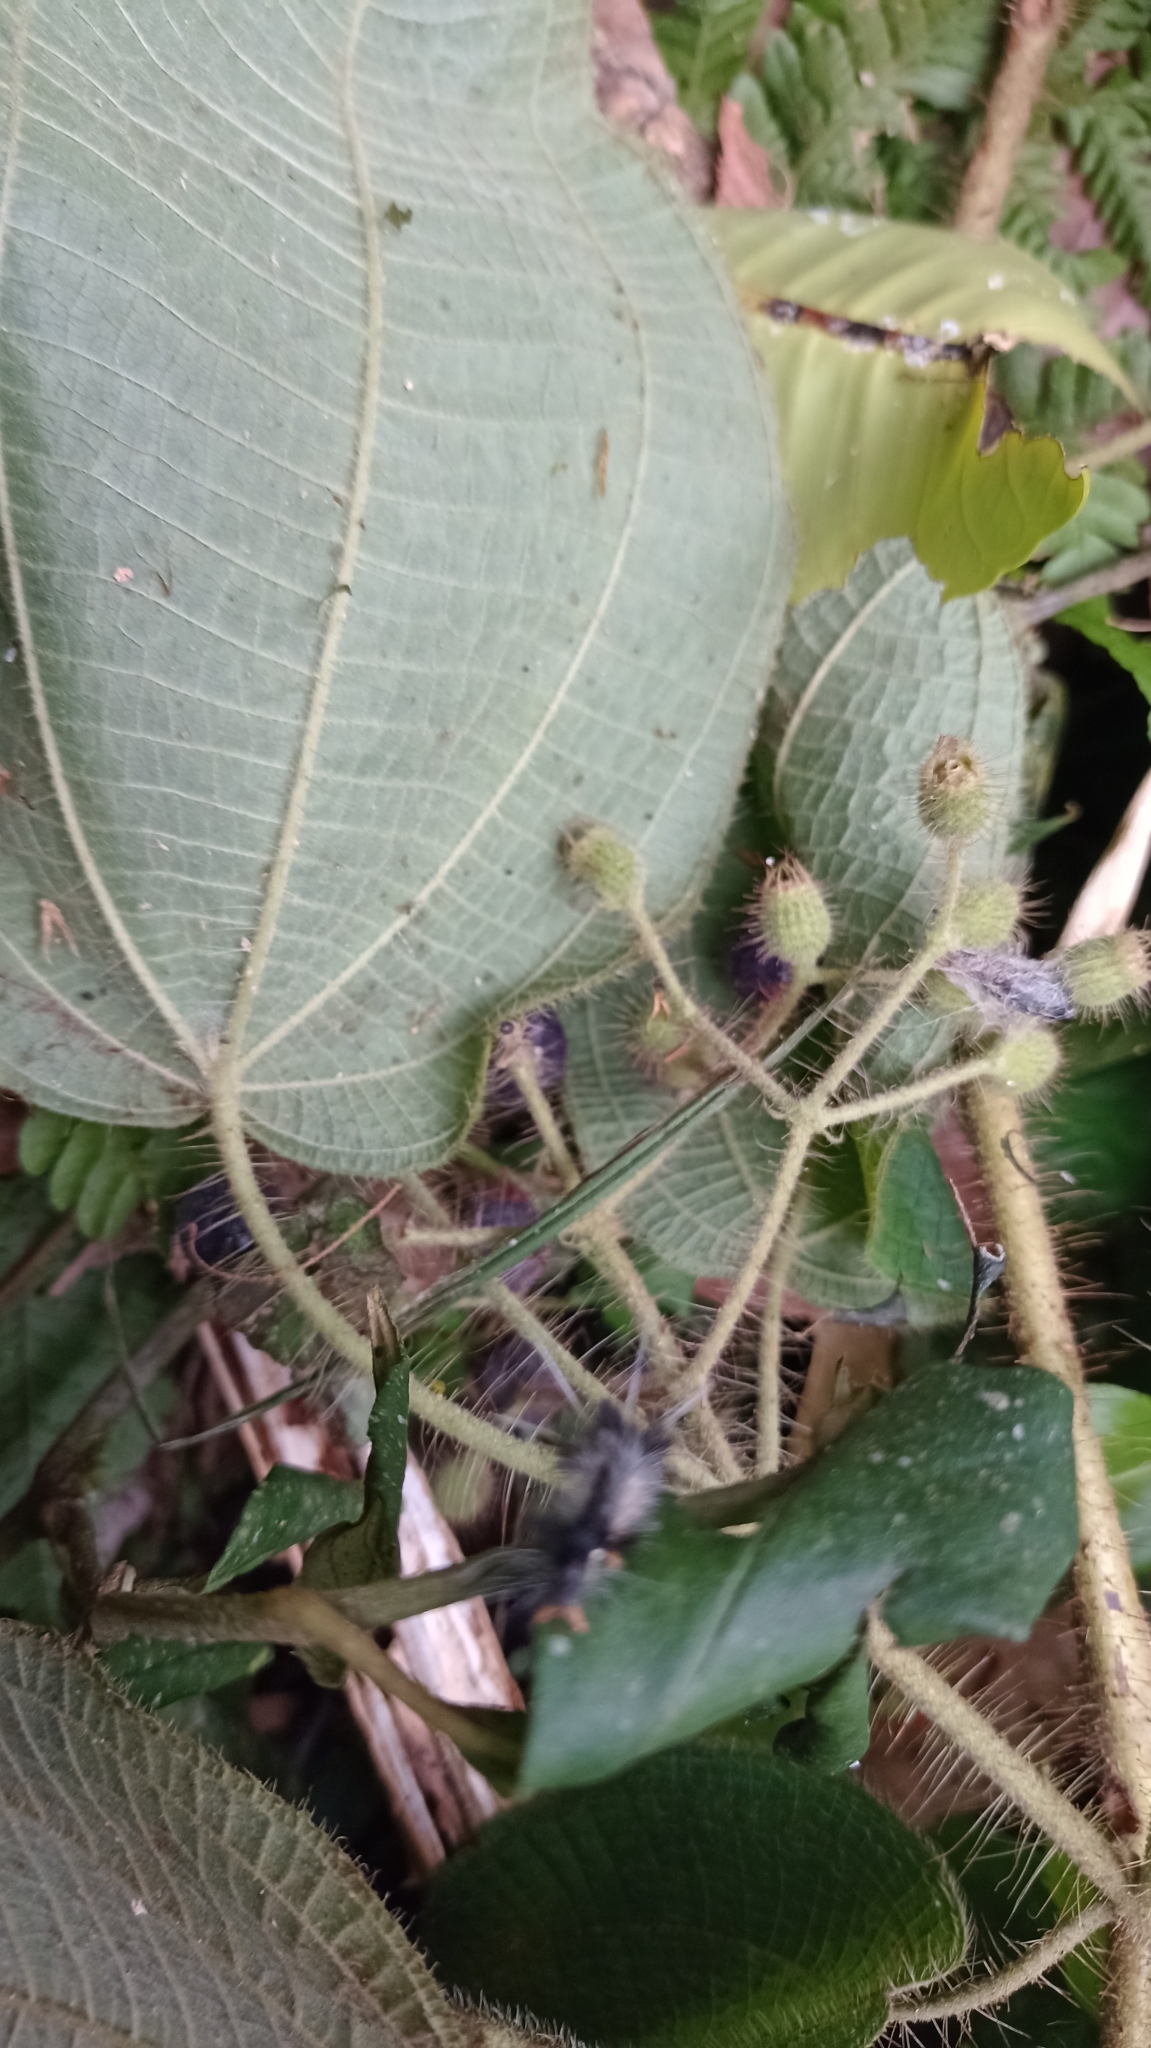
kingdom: Plantae
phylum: Tracheophyta
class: Magnoliopsida
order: Myrtales
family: Melastomataceae
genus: Miconia
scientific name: Miconia octona
